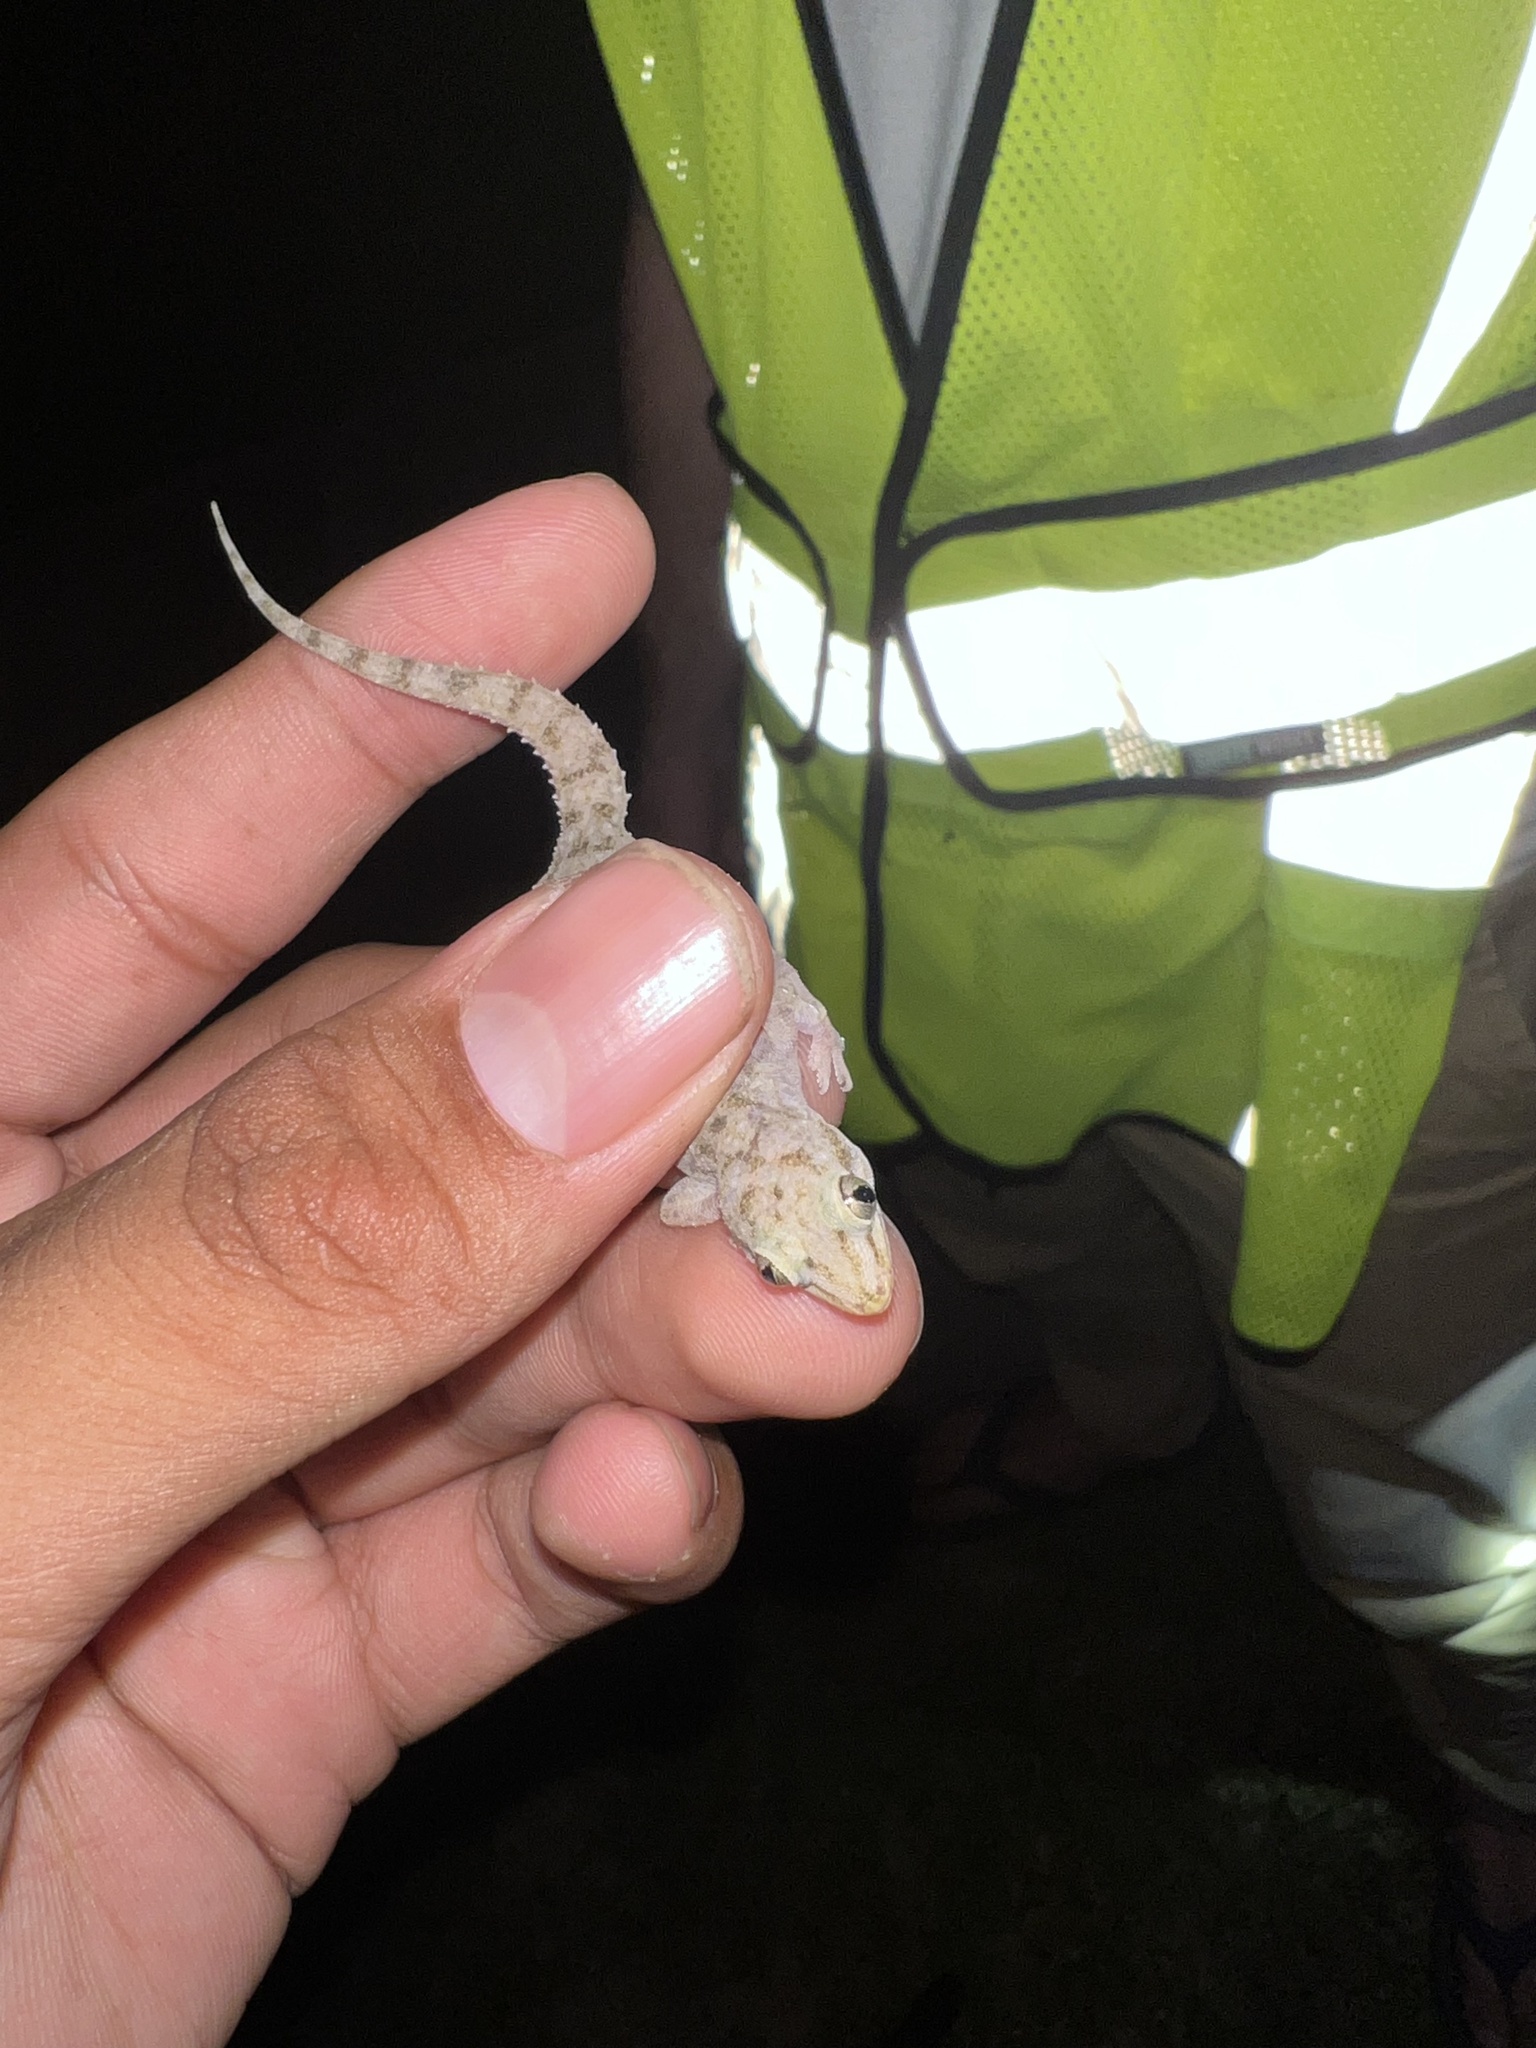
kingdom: Animalia
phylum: Chordata
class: Squamata
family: Gekkonidae
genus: Hemidactylus
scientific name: Hemidactylus parvimaculatus
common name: Spotted house gecko
